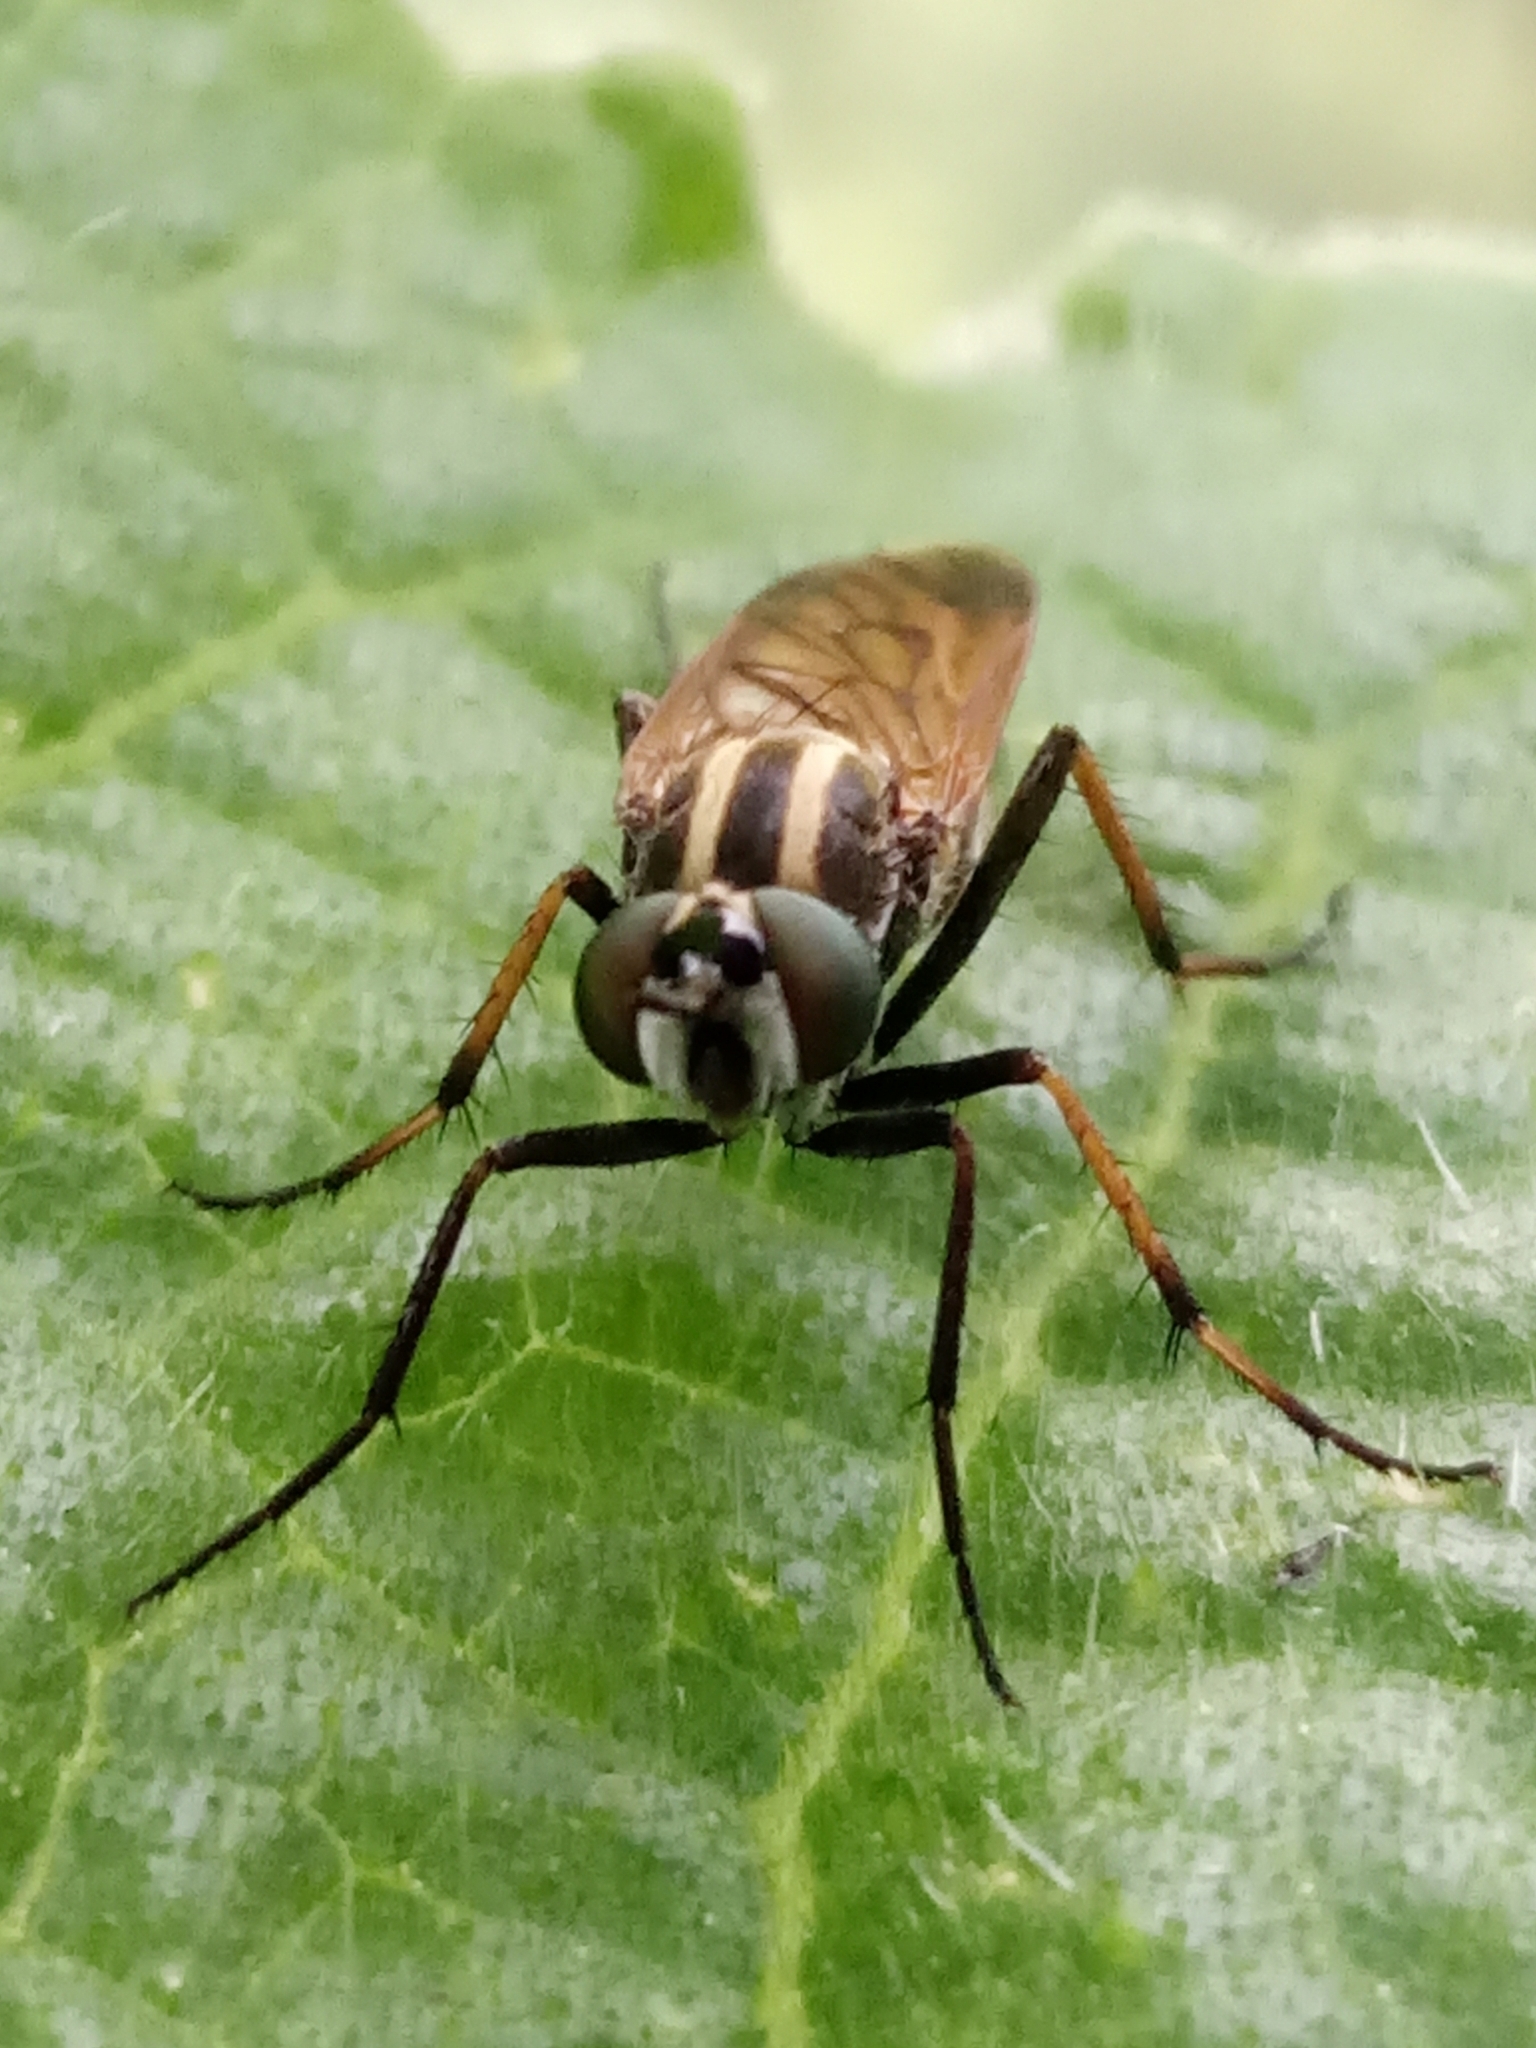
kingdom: Animalia
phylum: Arthropoda
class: Insecta
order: Diptera
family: Therevidae
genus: Thereva
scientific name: Thereva fulvibarba
